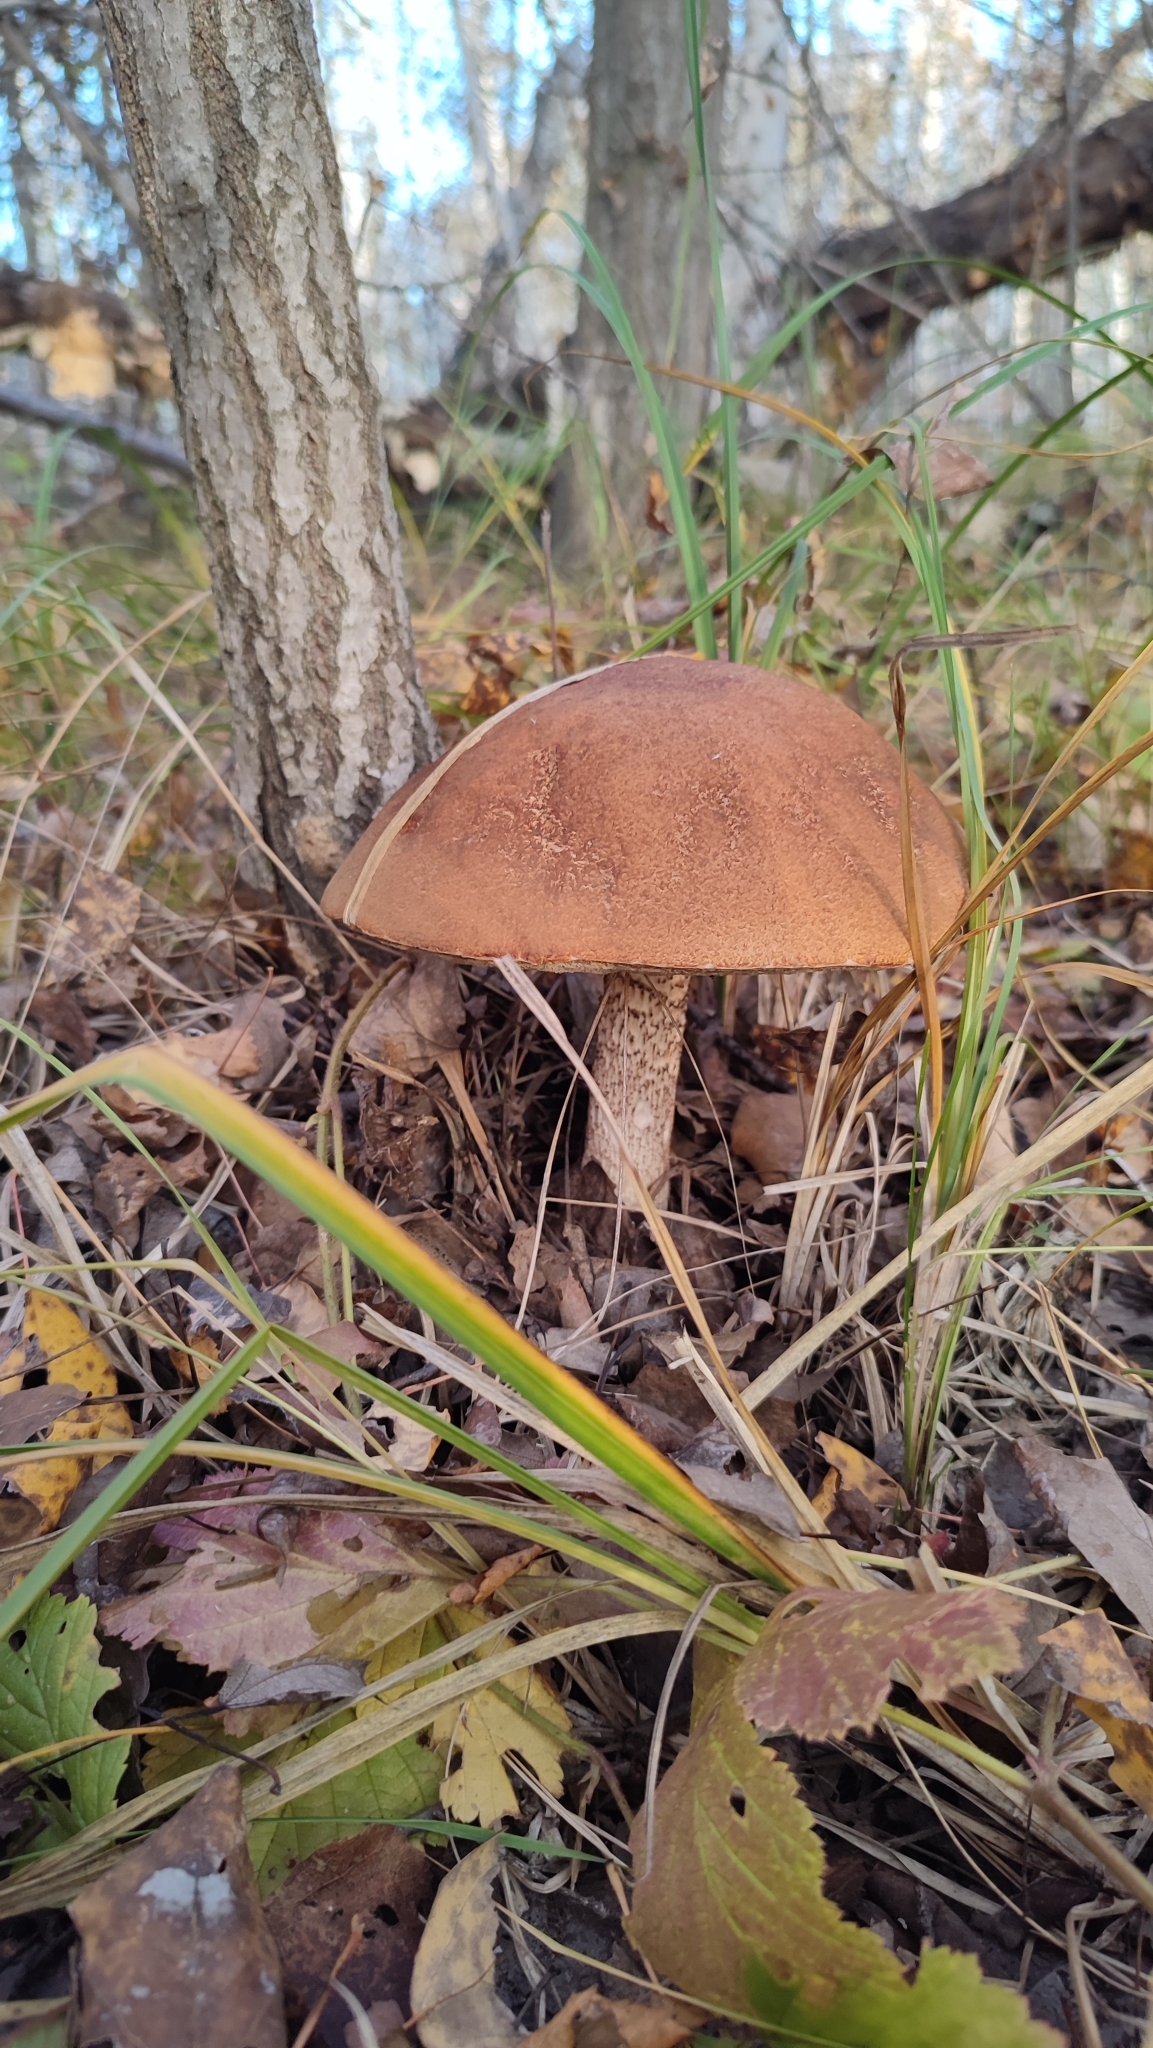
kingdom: Fungi
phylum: Basidiomycota
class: Agaricomycetes
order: Boletales
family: Boletaceae
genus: Leccinum
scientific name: Leccinum aurantiacum
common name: Orange bolete
